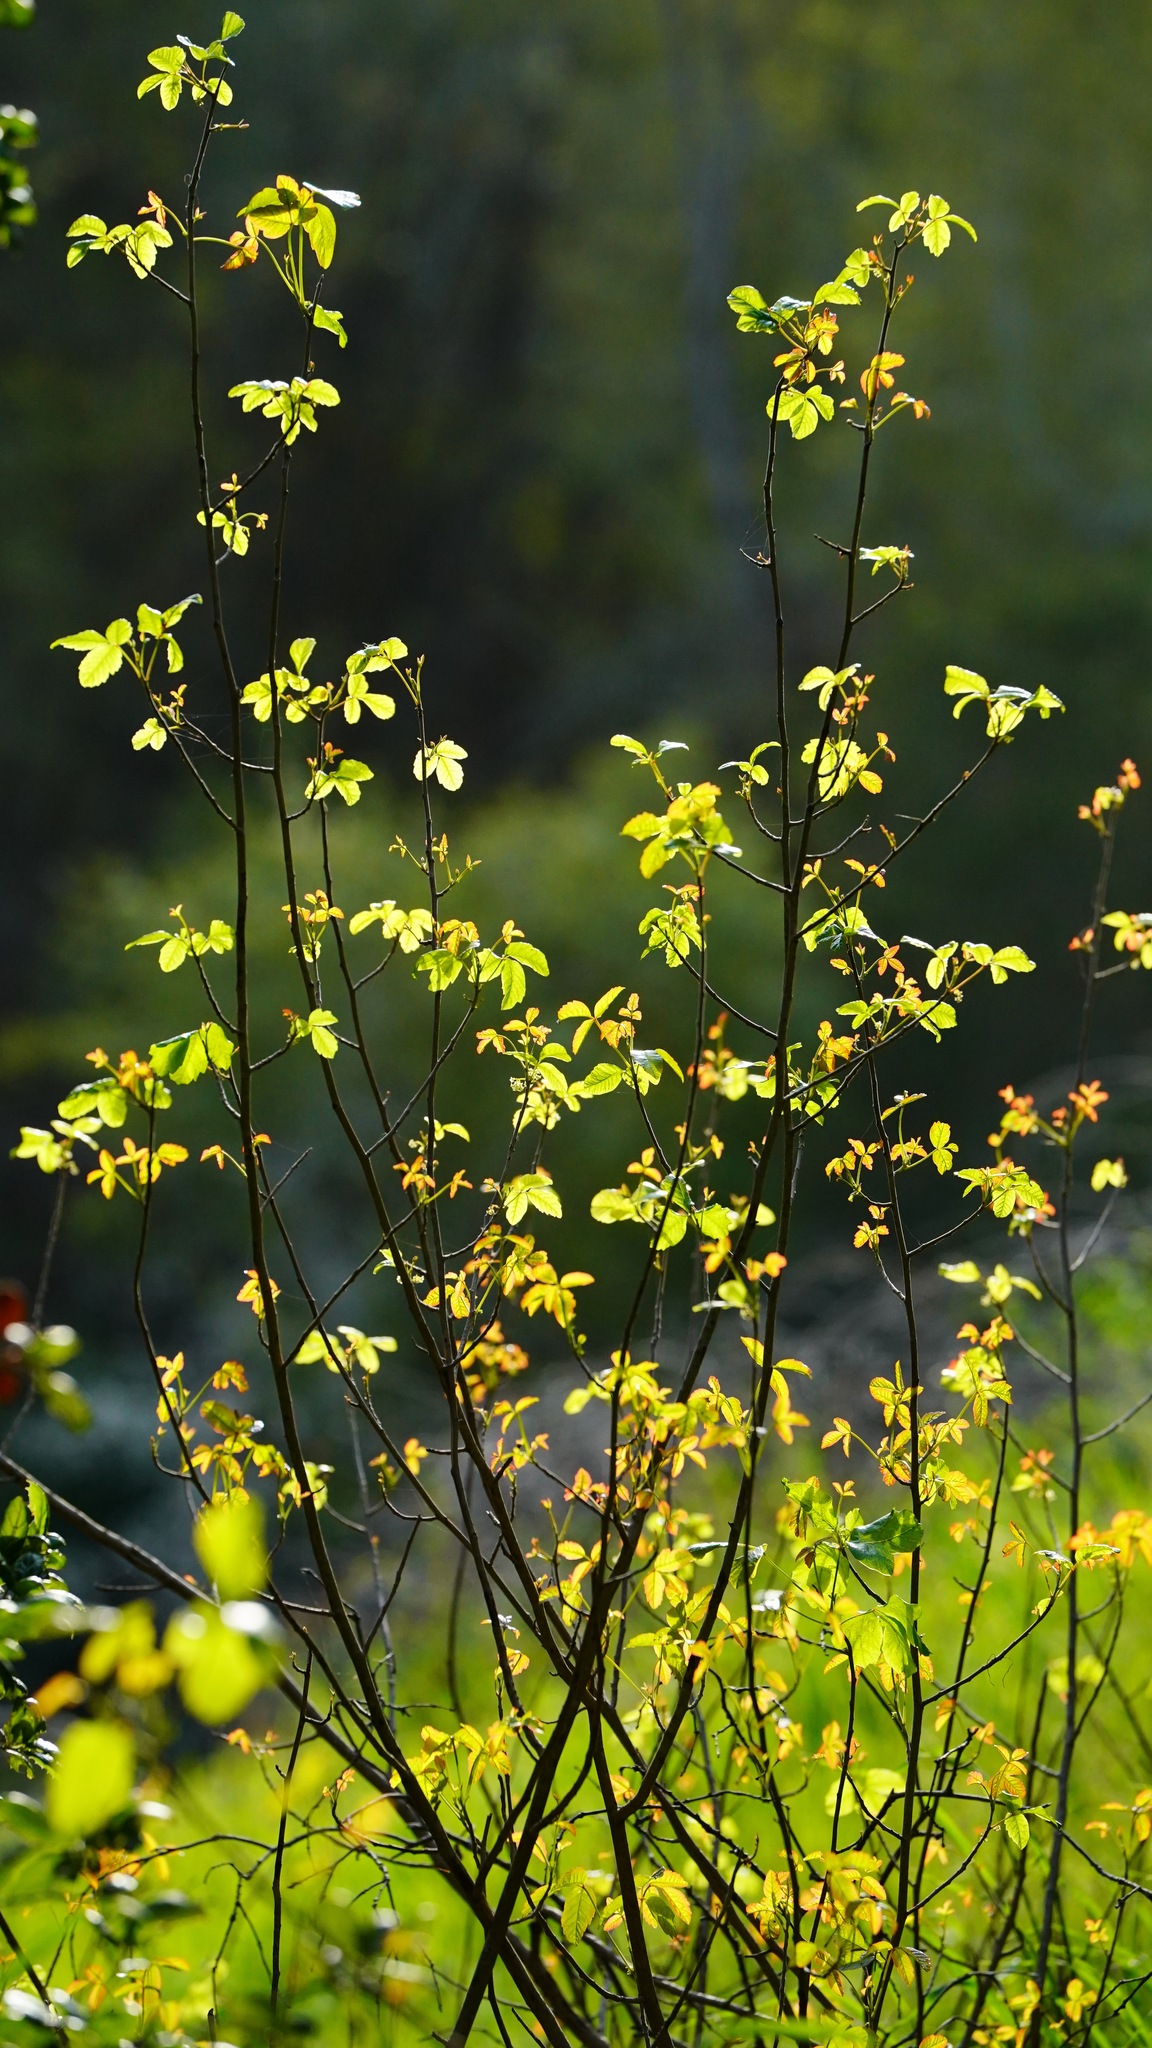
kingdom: Plantae
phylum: Tracheophyta
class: Magnoliopsida
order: Sapindales
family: Anacardiaceae
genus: Toxicodendron
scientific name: Toxicodendron diversilobum
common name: Pacific poison-oak
